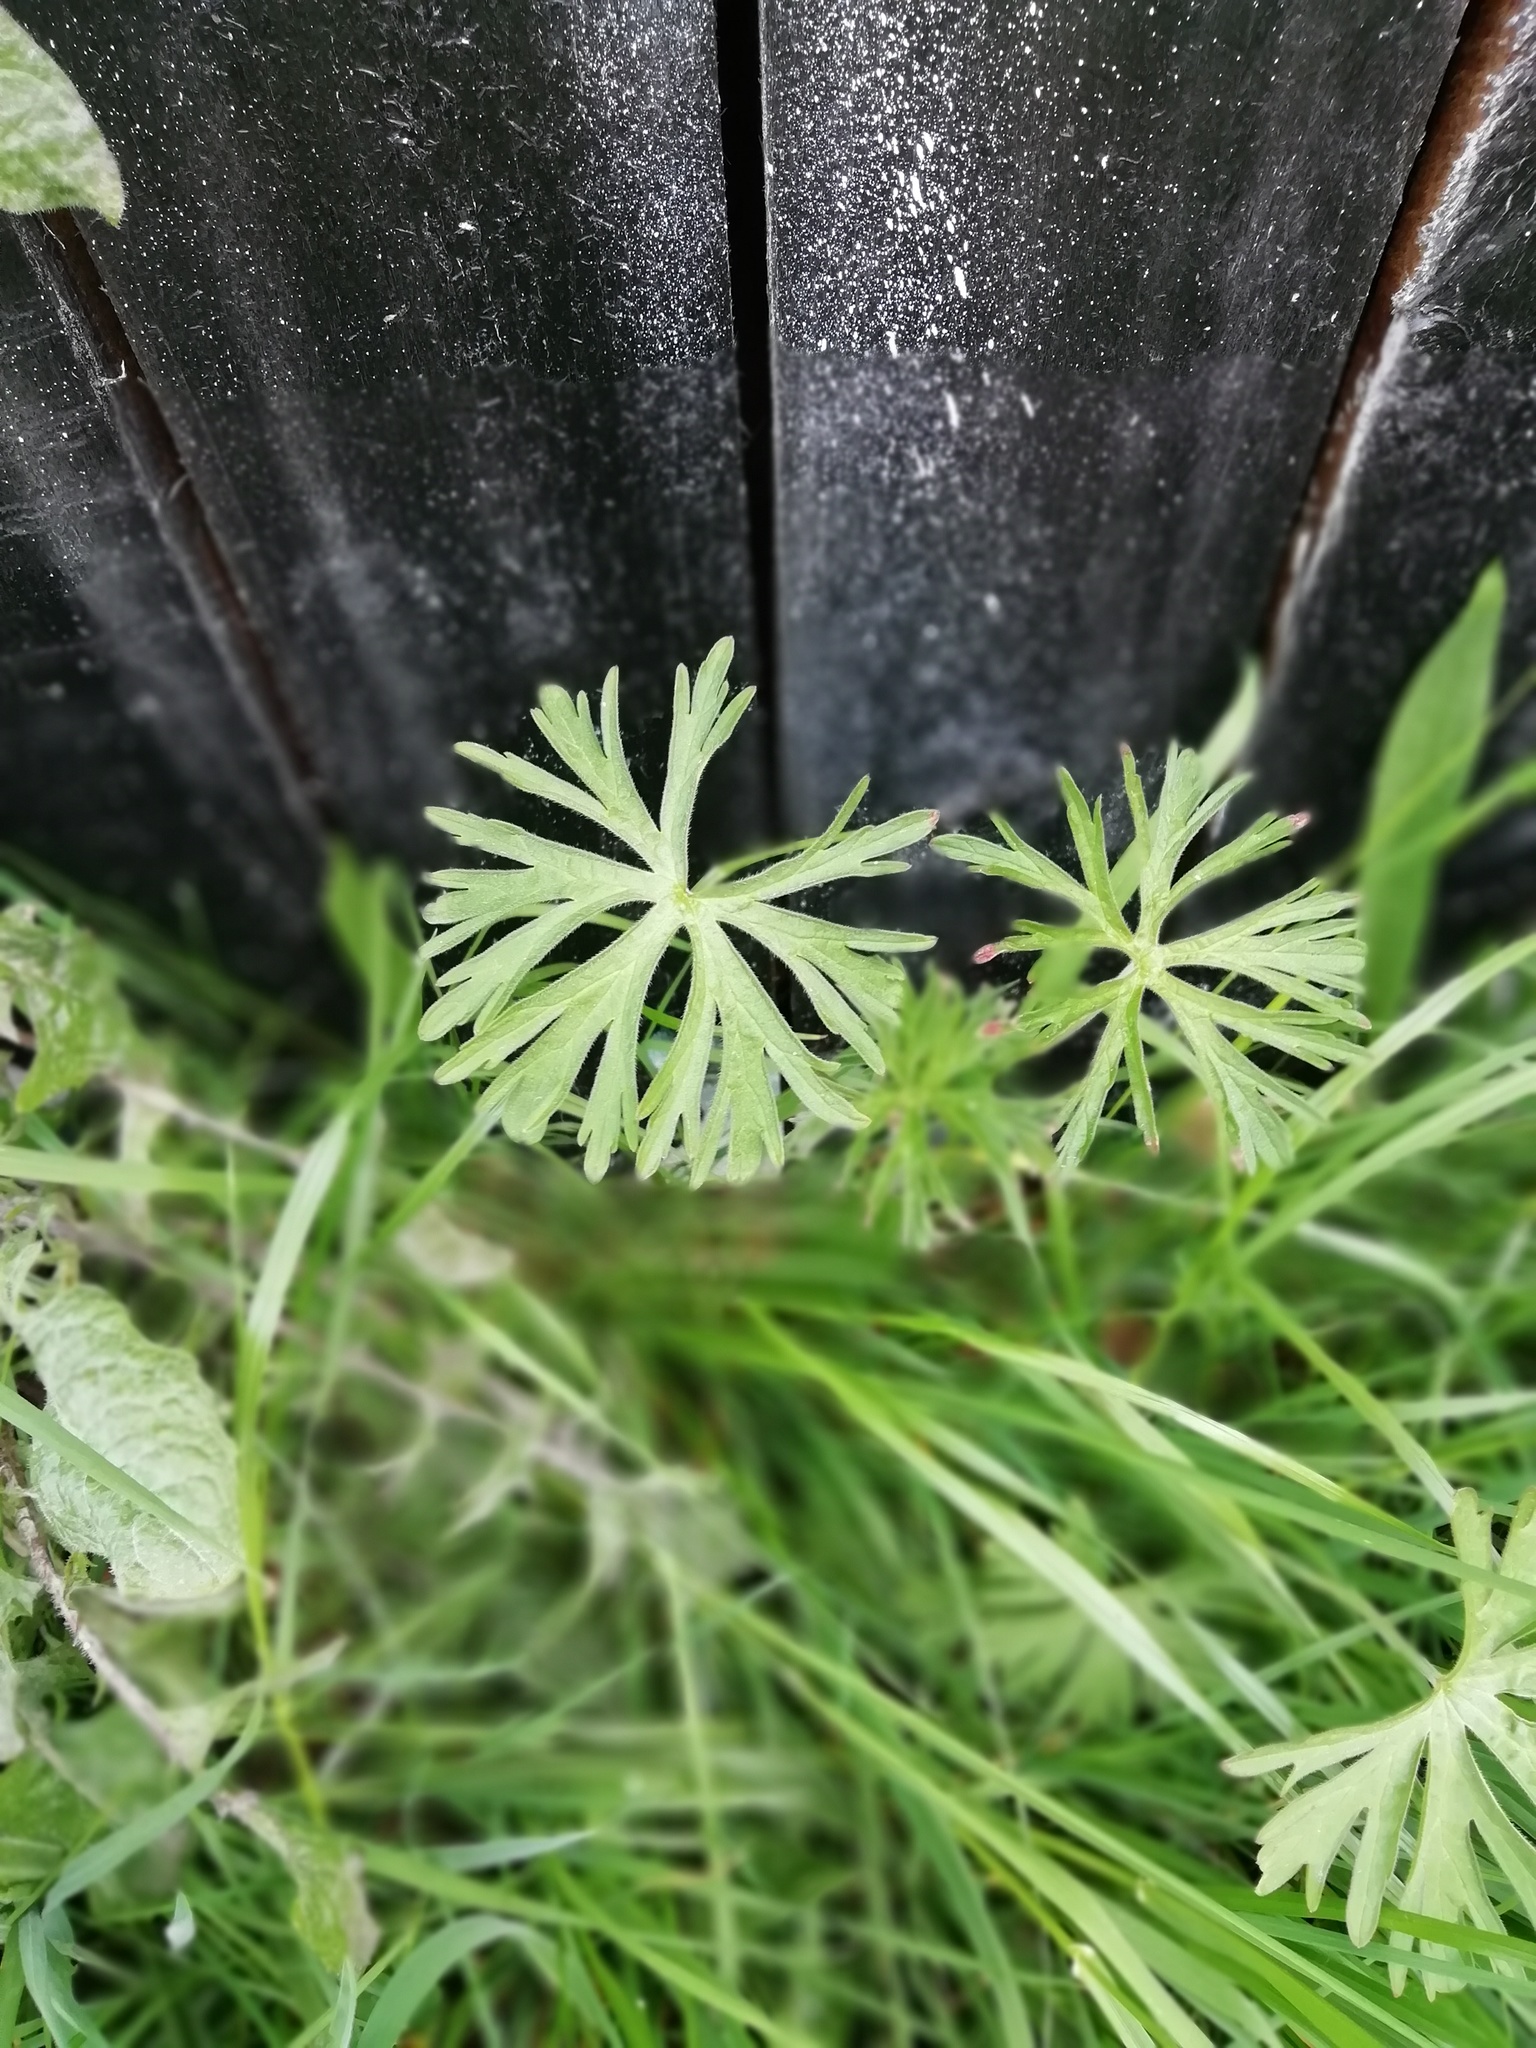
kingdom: Plantae
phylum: Tracheophyta
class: Magnoliopsida
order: Geraniales
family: Geraniaceae
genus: Geranium
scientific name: Geranium dissectum
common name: Cut-leaved crane's-bill
